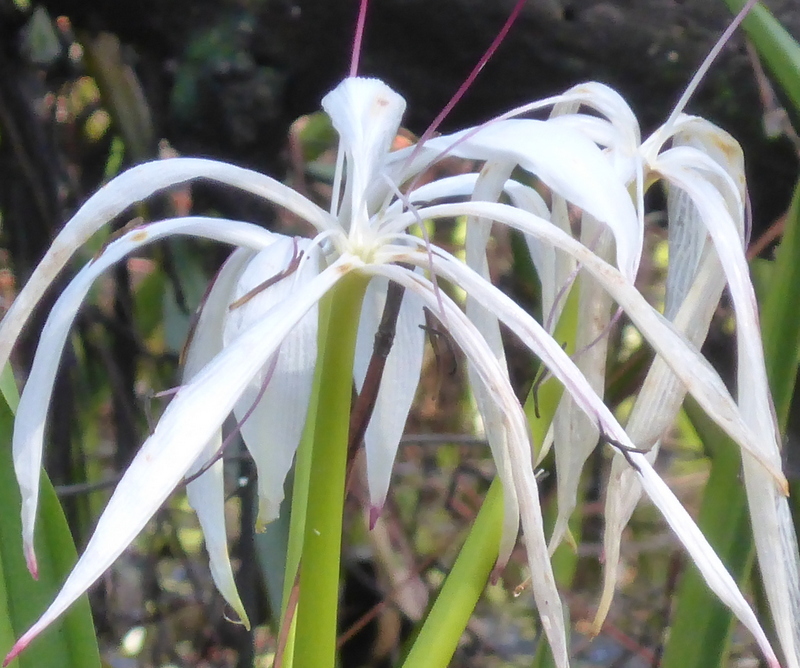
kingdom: Plantae
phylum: Tracheophyta
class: Liliopsida
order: Asparagales
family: Amaryllidaceae
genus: Crinum
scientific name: Crinum americanum
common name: Florida swamp-lily
